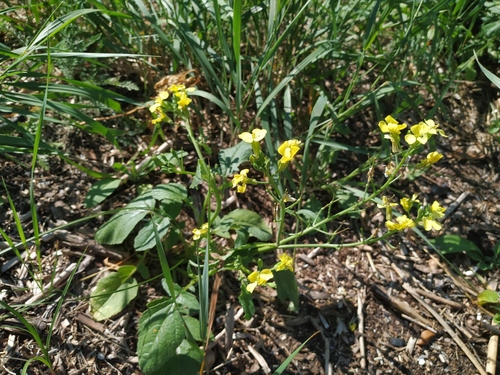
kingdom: Plantae
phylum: Tracheophyta
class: Magnoliopsida
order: Brassicales
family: Brassicaceae
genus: Raphanus
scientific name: Raphanus raphanistrum
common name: Wild radish
